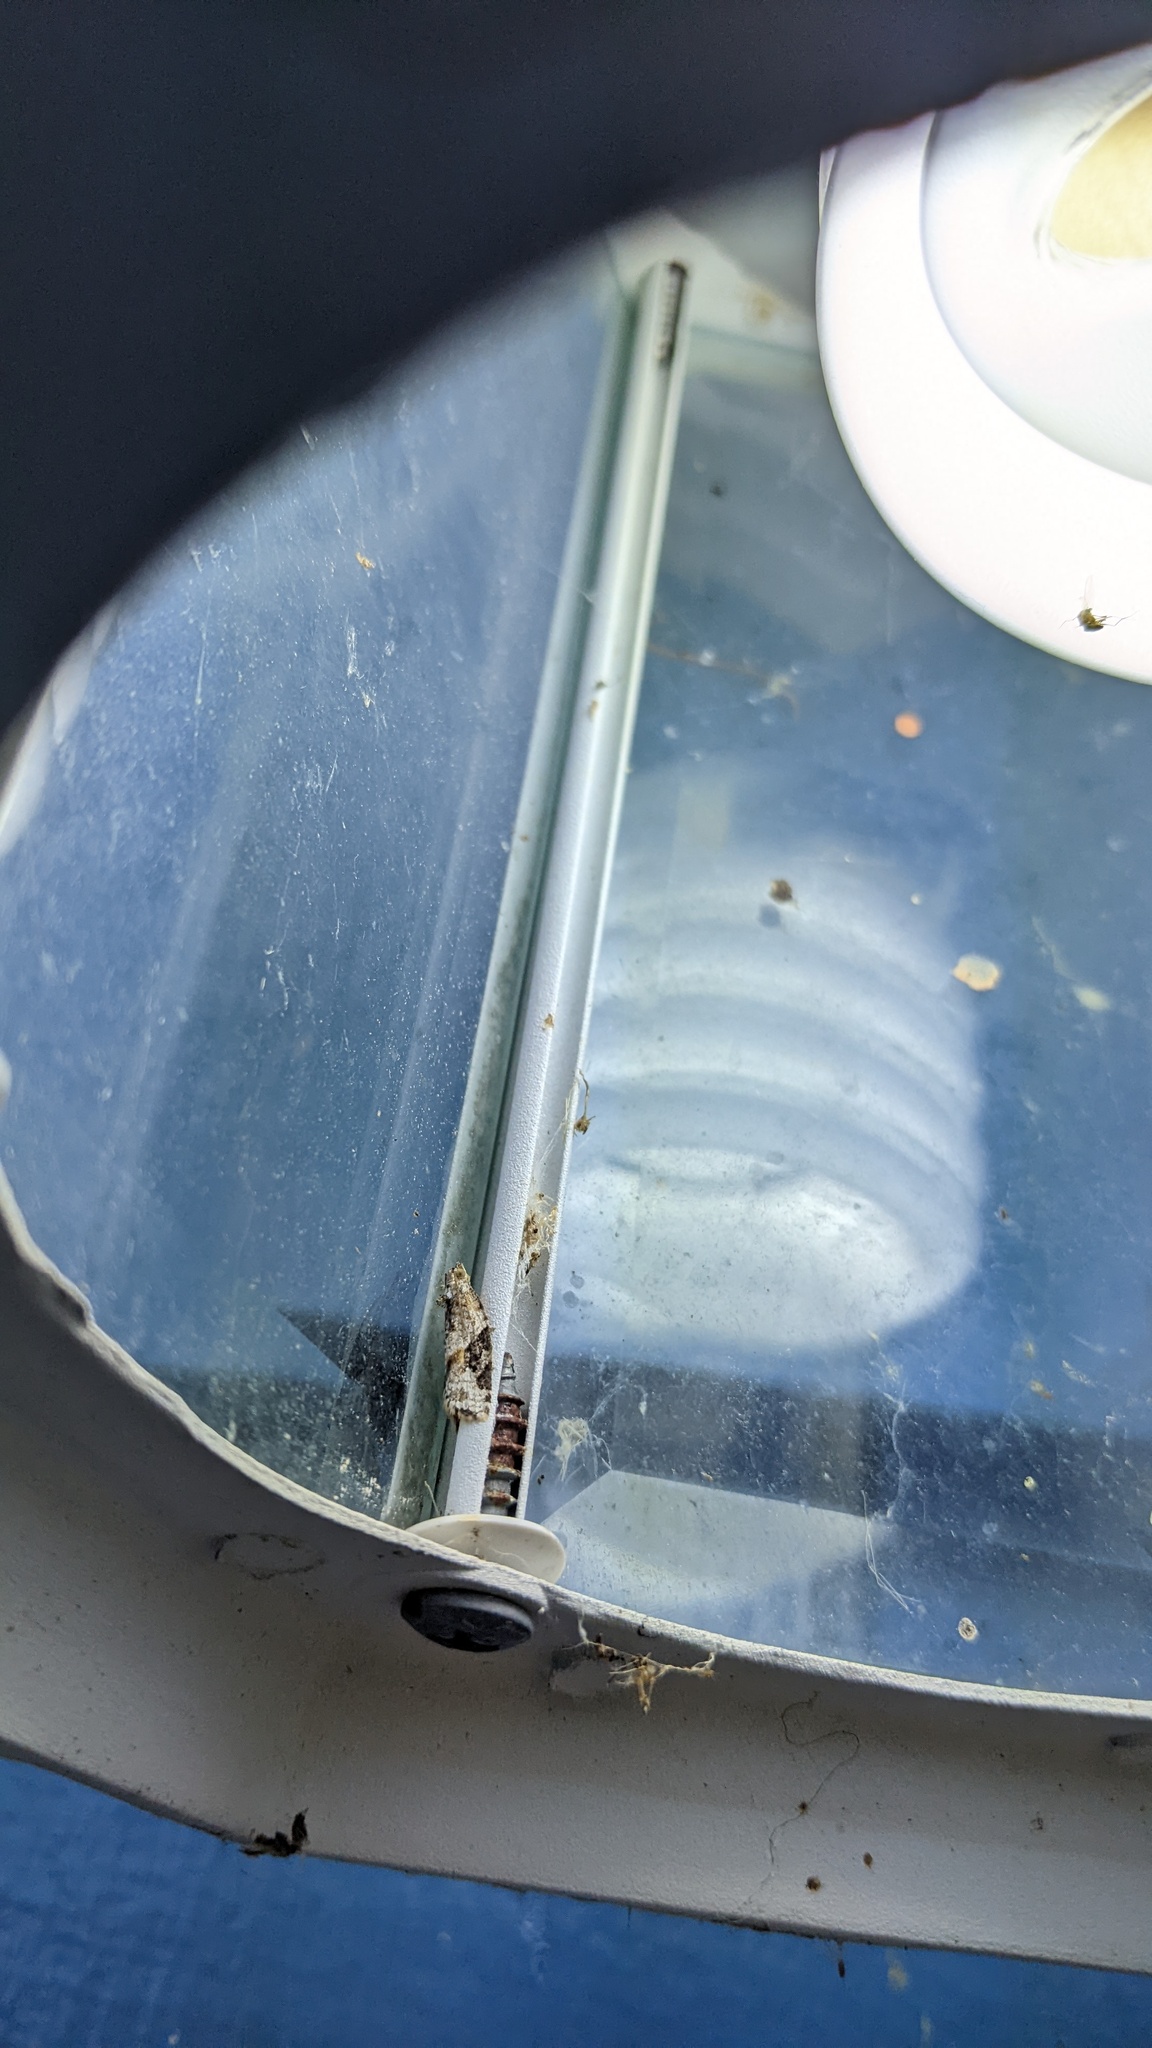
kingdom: Animalia
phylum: Arthropoda
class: Insecta
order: Lepidoptera
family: Tortricidae
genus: Argyrotaenia
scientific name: Argyrotaenia mariana
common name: Gray-banded leafroller moth
